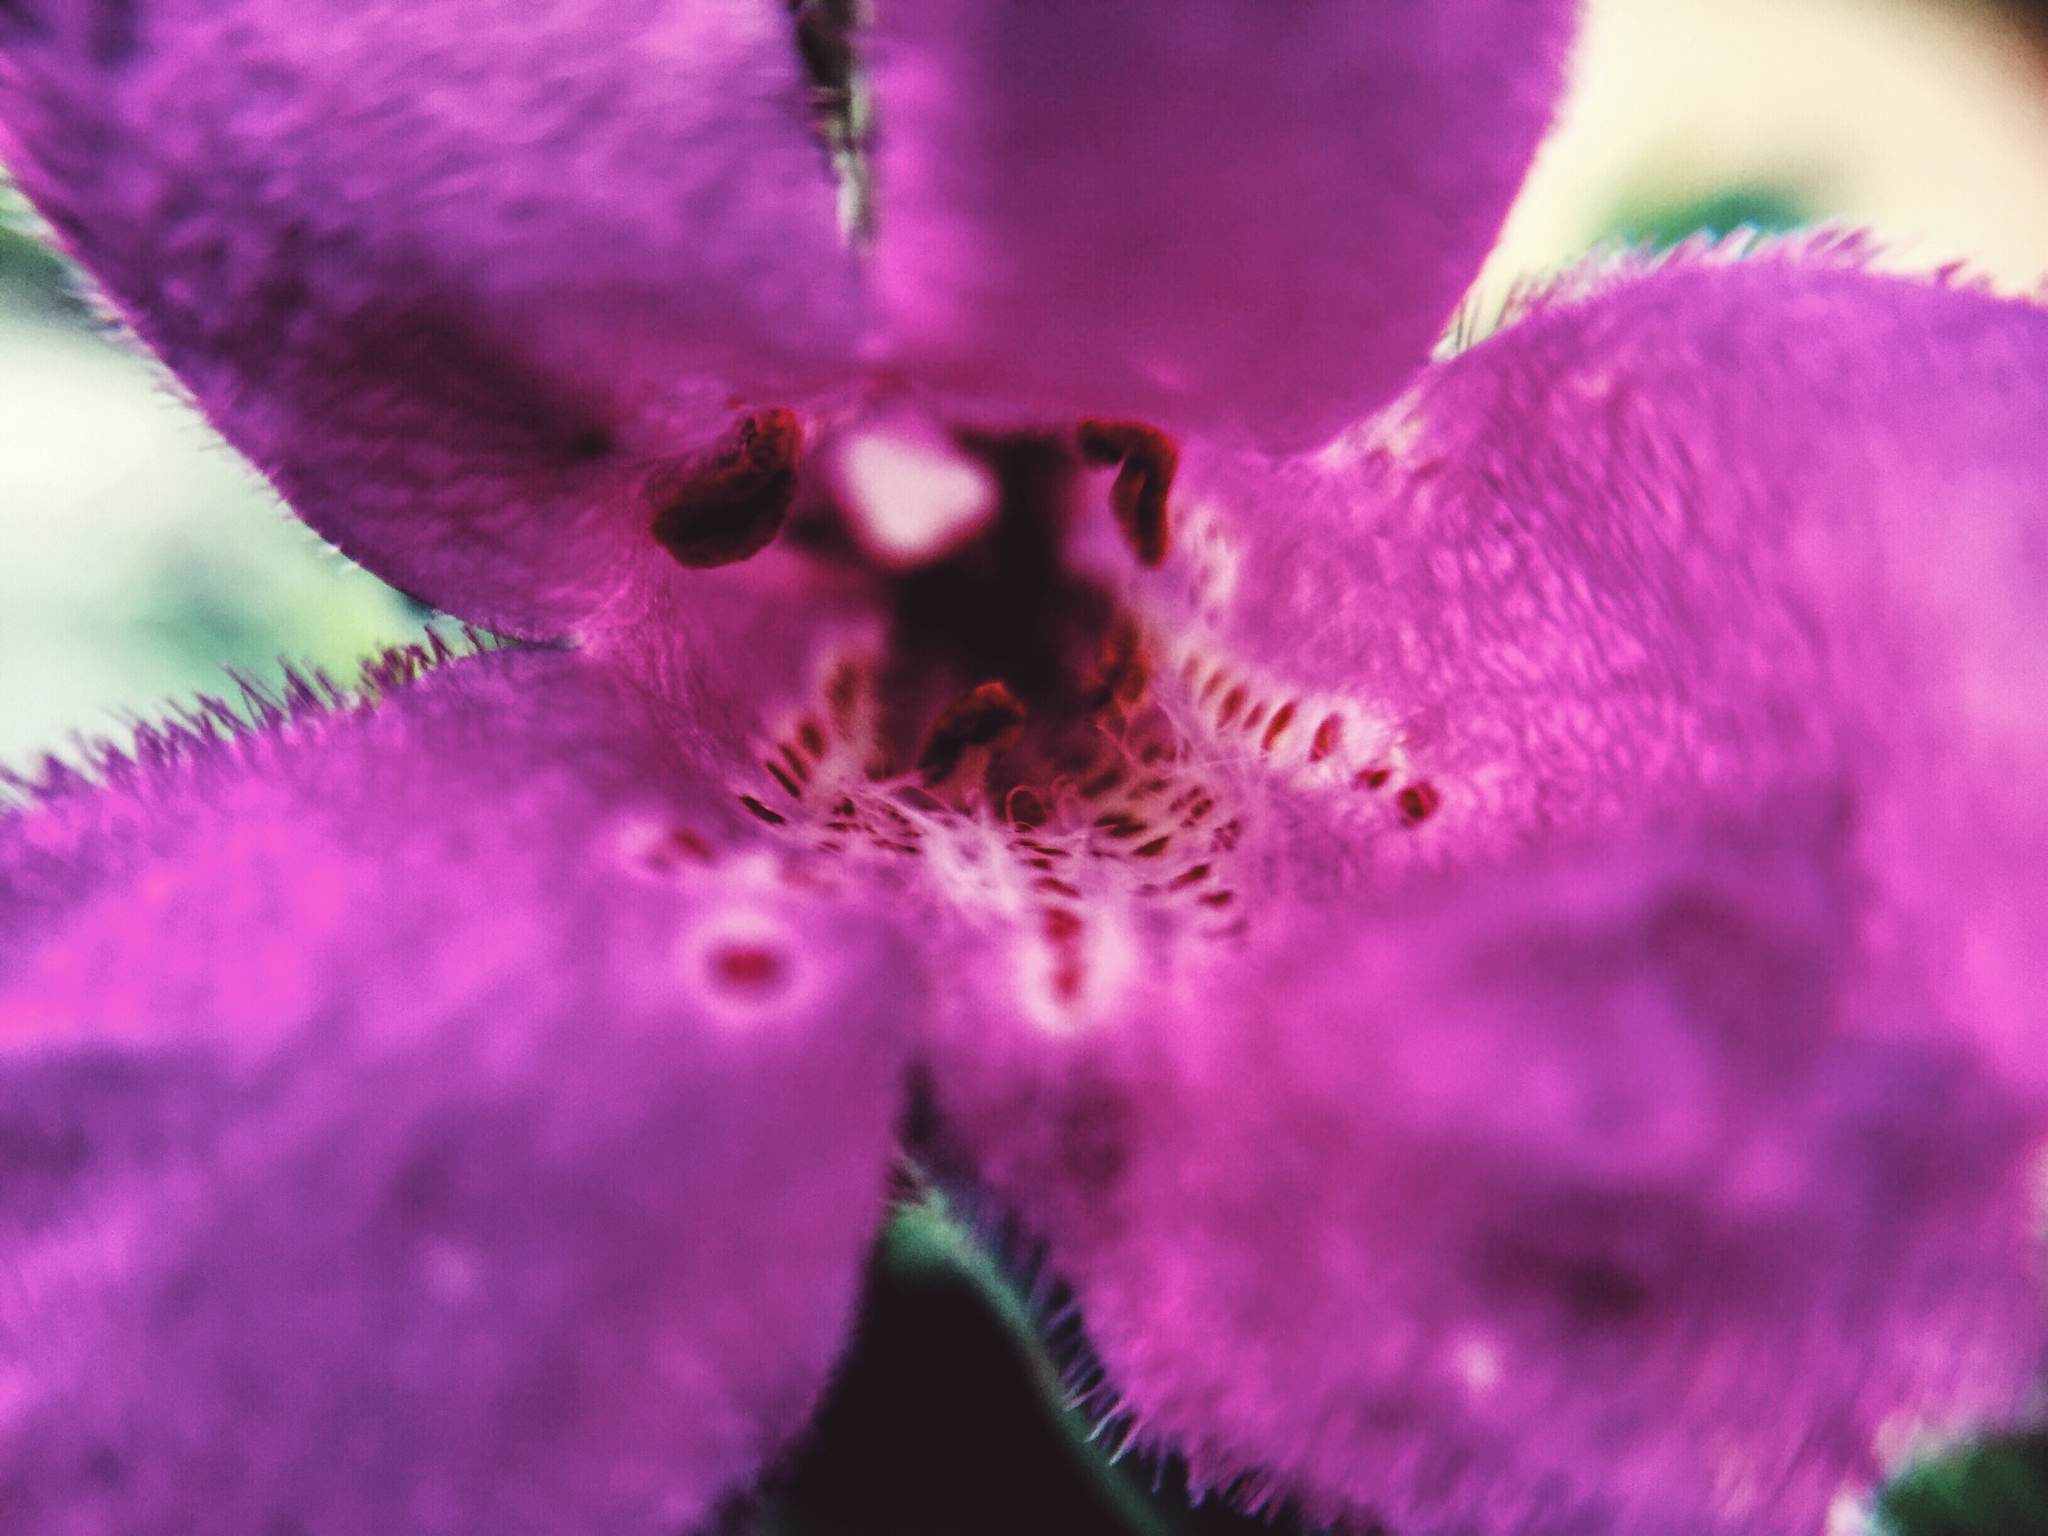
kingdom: Plantae
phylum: Tracheophyta
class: Magnoliopsida
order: Lamiales
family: Scrophulariaceae
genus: Leucophyllum
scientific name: Leucophyllum frutescens
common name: Texas silverleaf
